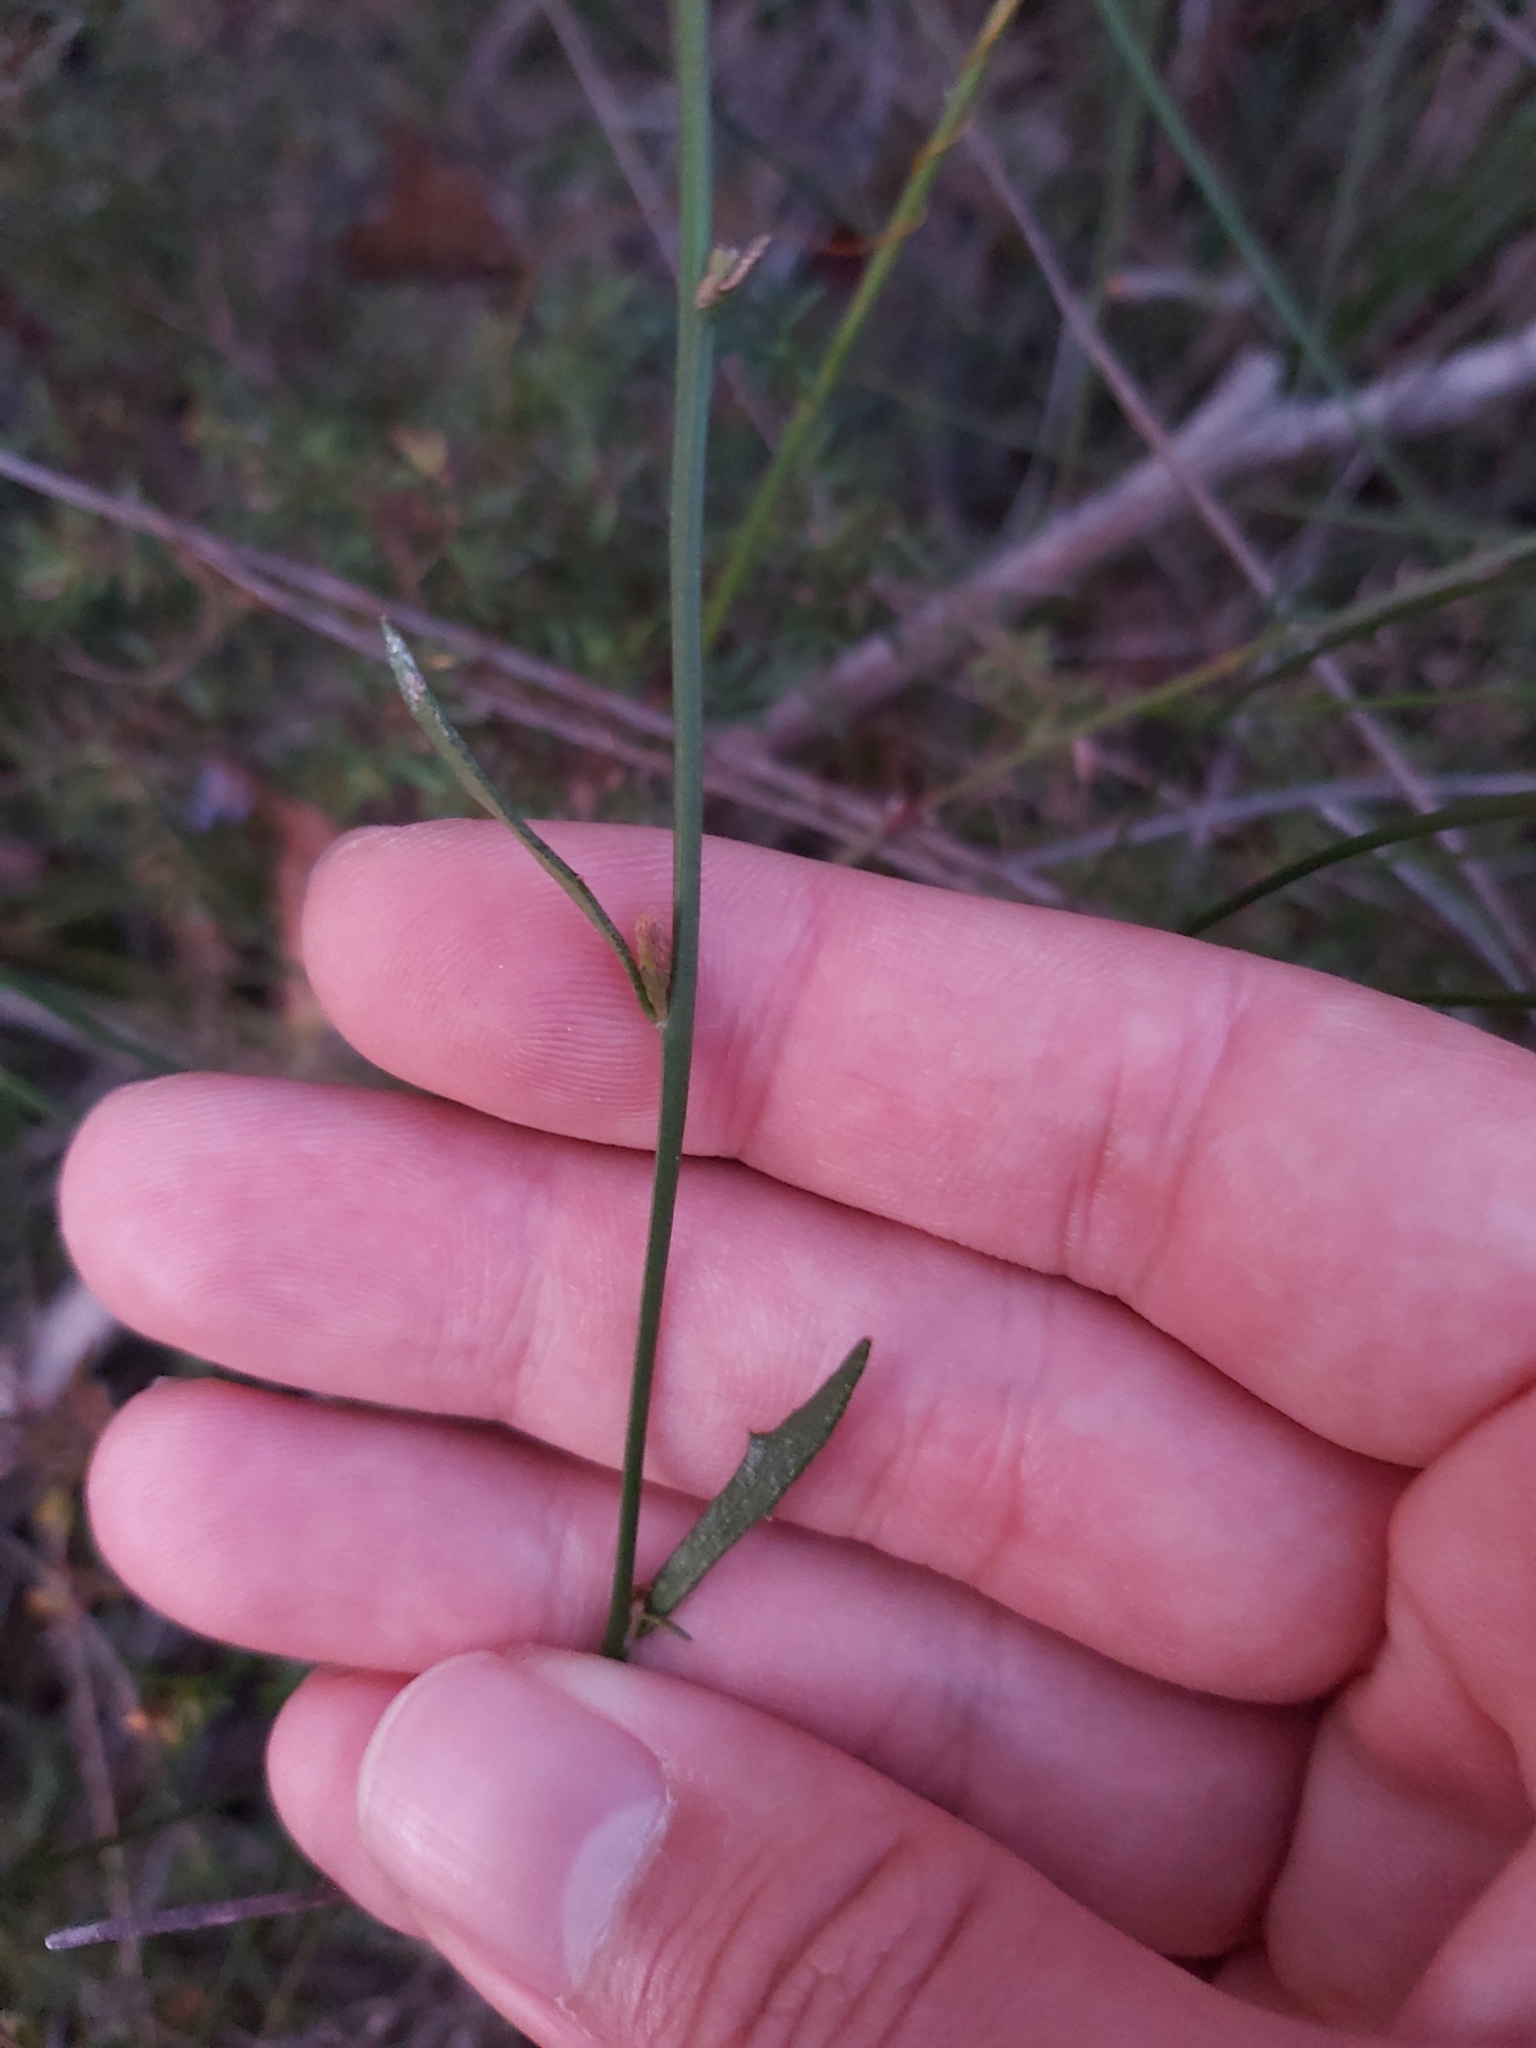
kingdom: Plantae
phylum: Tracheophyta
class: Magnoliopsida
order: Asterales
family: Goodeniaceae
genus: Dampiera
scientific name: Dampiera stricta
